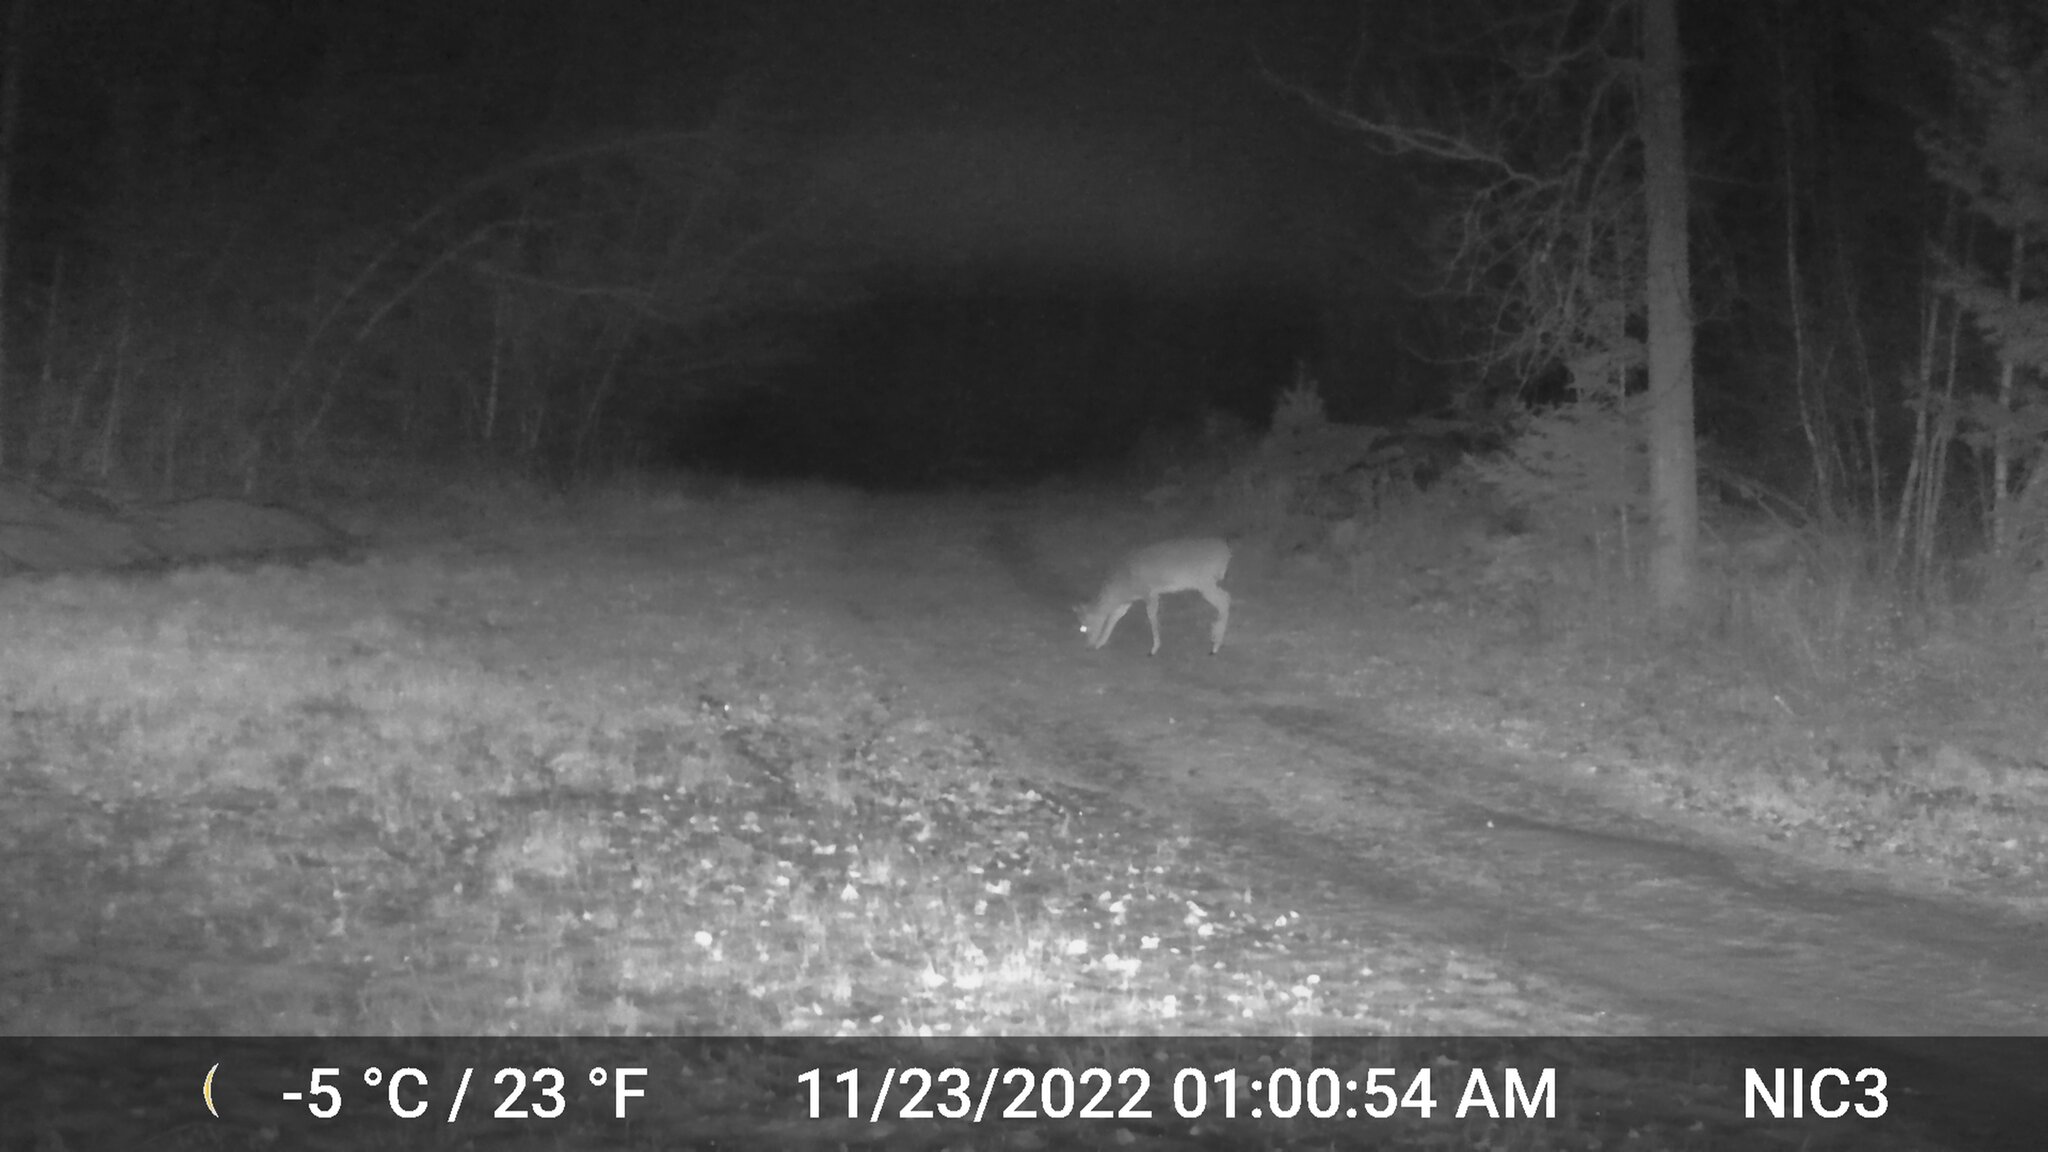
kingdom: Animalia
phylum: Chordata
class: Mammalia
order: Artiodactyla
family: Cervidae
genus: Odocoileus
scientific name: Odocoileus virginianus
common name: White-tailed deer
